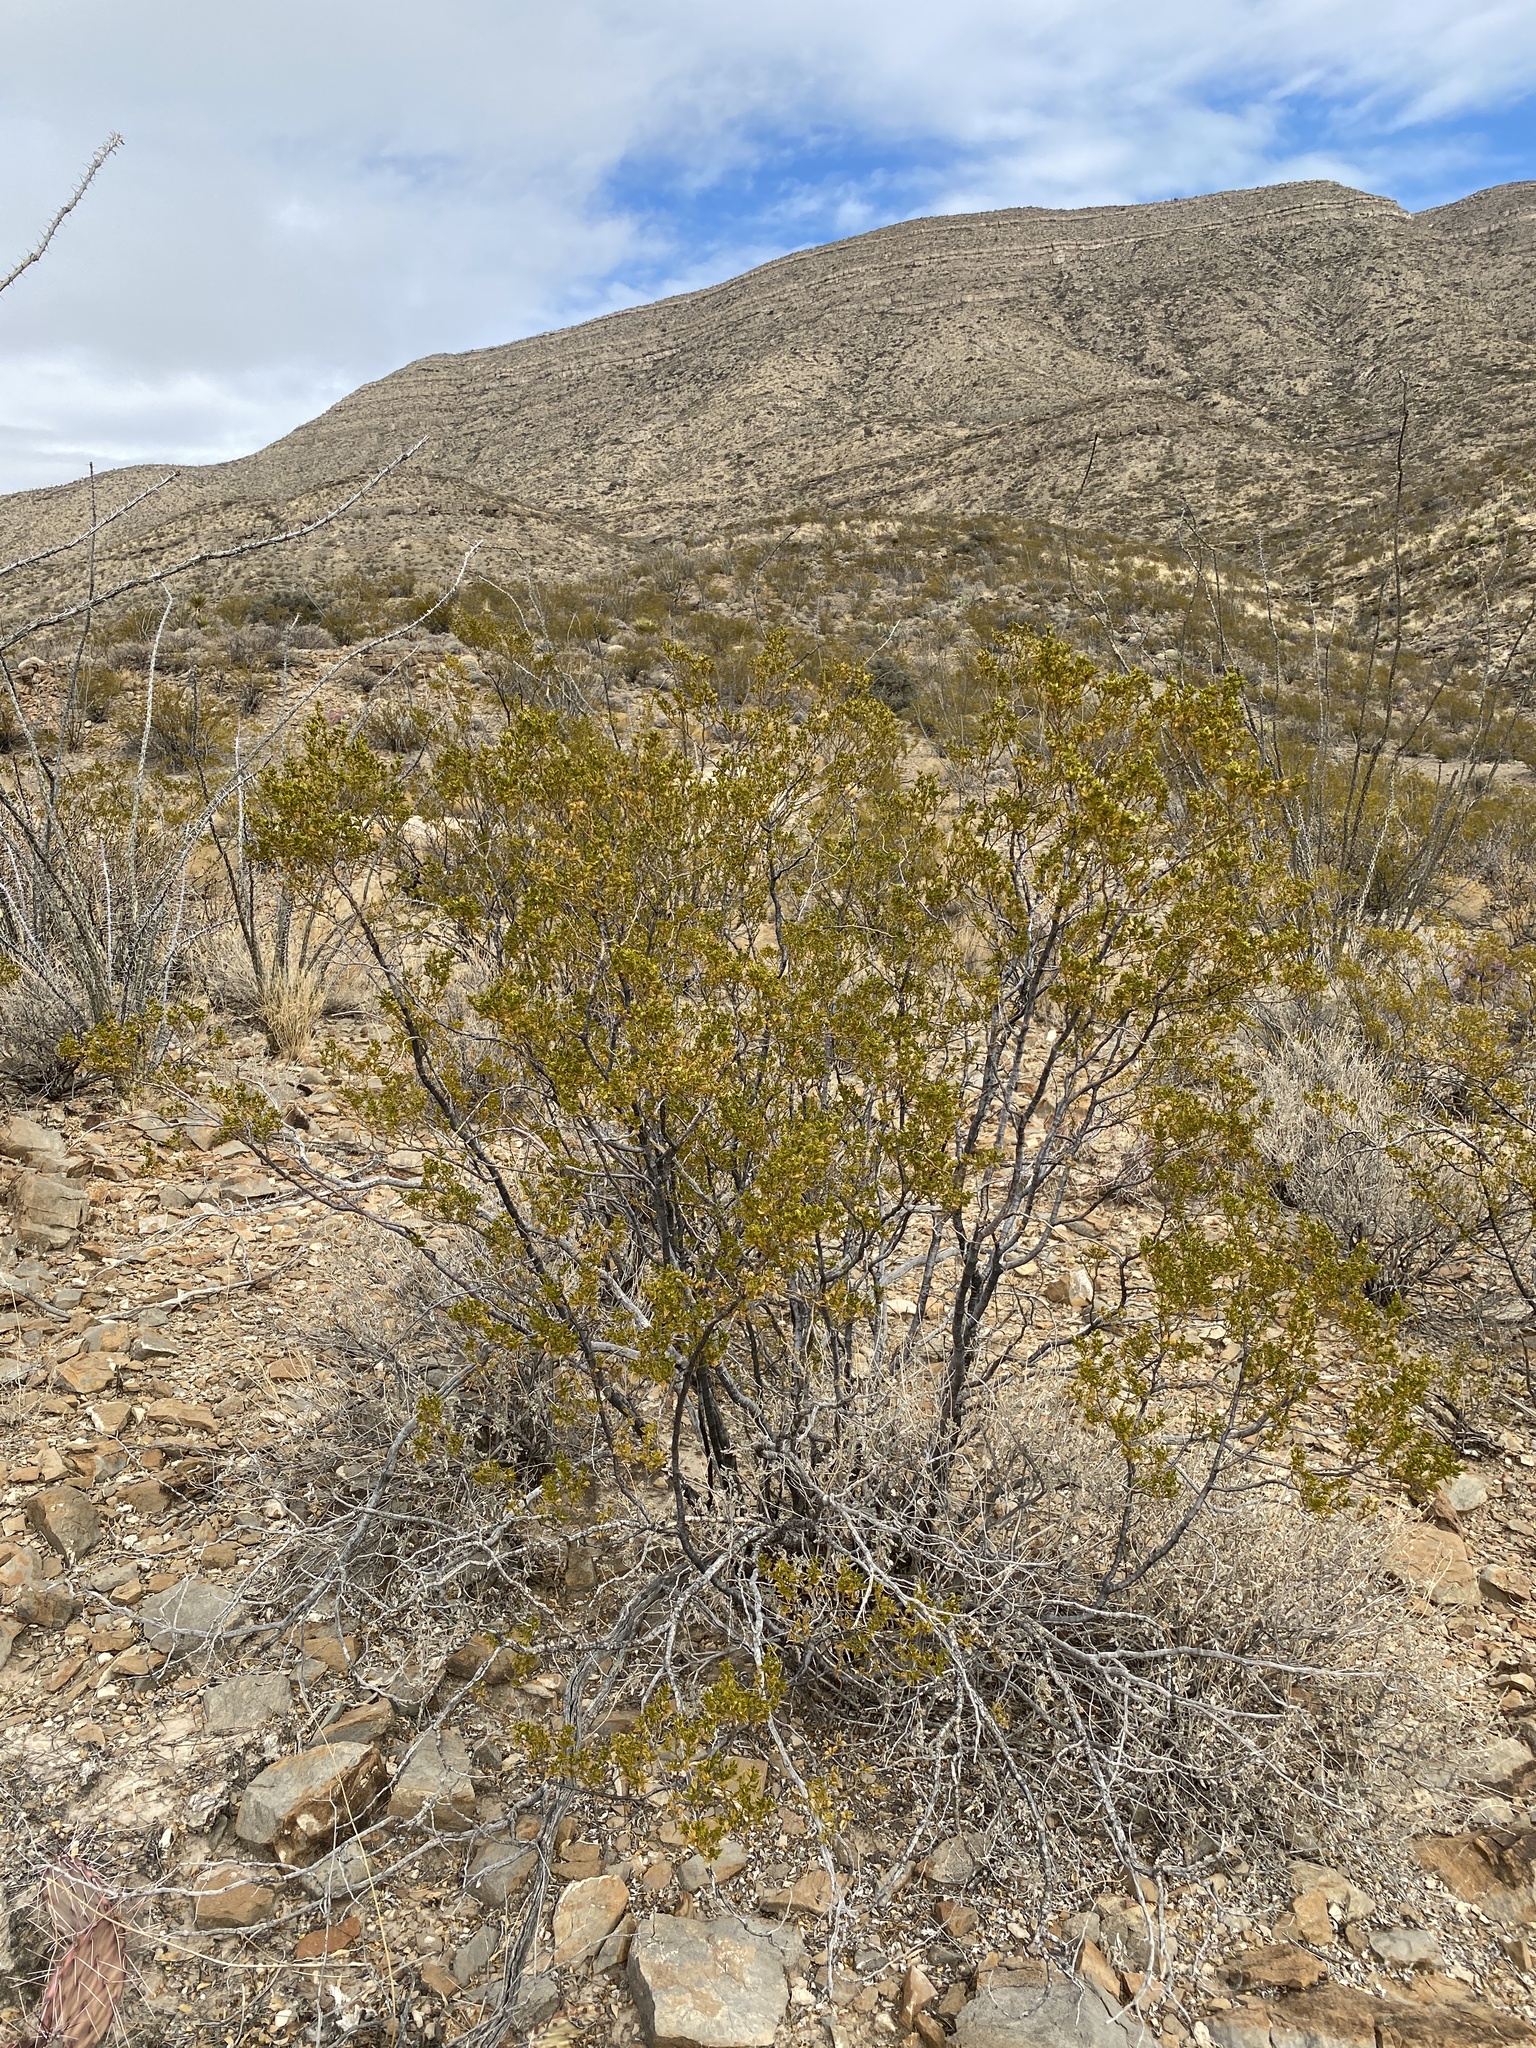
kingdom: Plantae
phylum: Tracheophyta
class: Magnoliopsida
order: Zygophyllales
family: Zygophyllaceae
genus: Larrea
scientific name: Larrea tridentata
